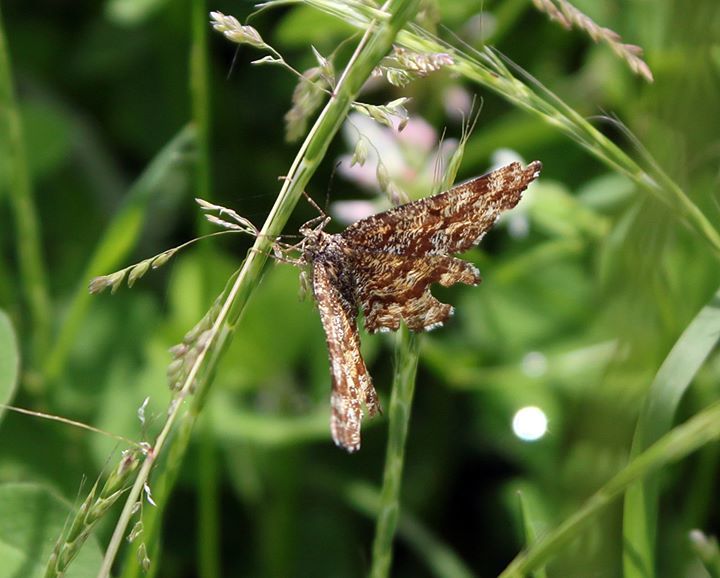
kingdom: Animalia
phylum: Arthropoda
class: Insecta
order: Lepidoptera
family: Geometridae
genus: Ematurga
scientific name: Ematurga atomaria
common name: Common heath
